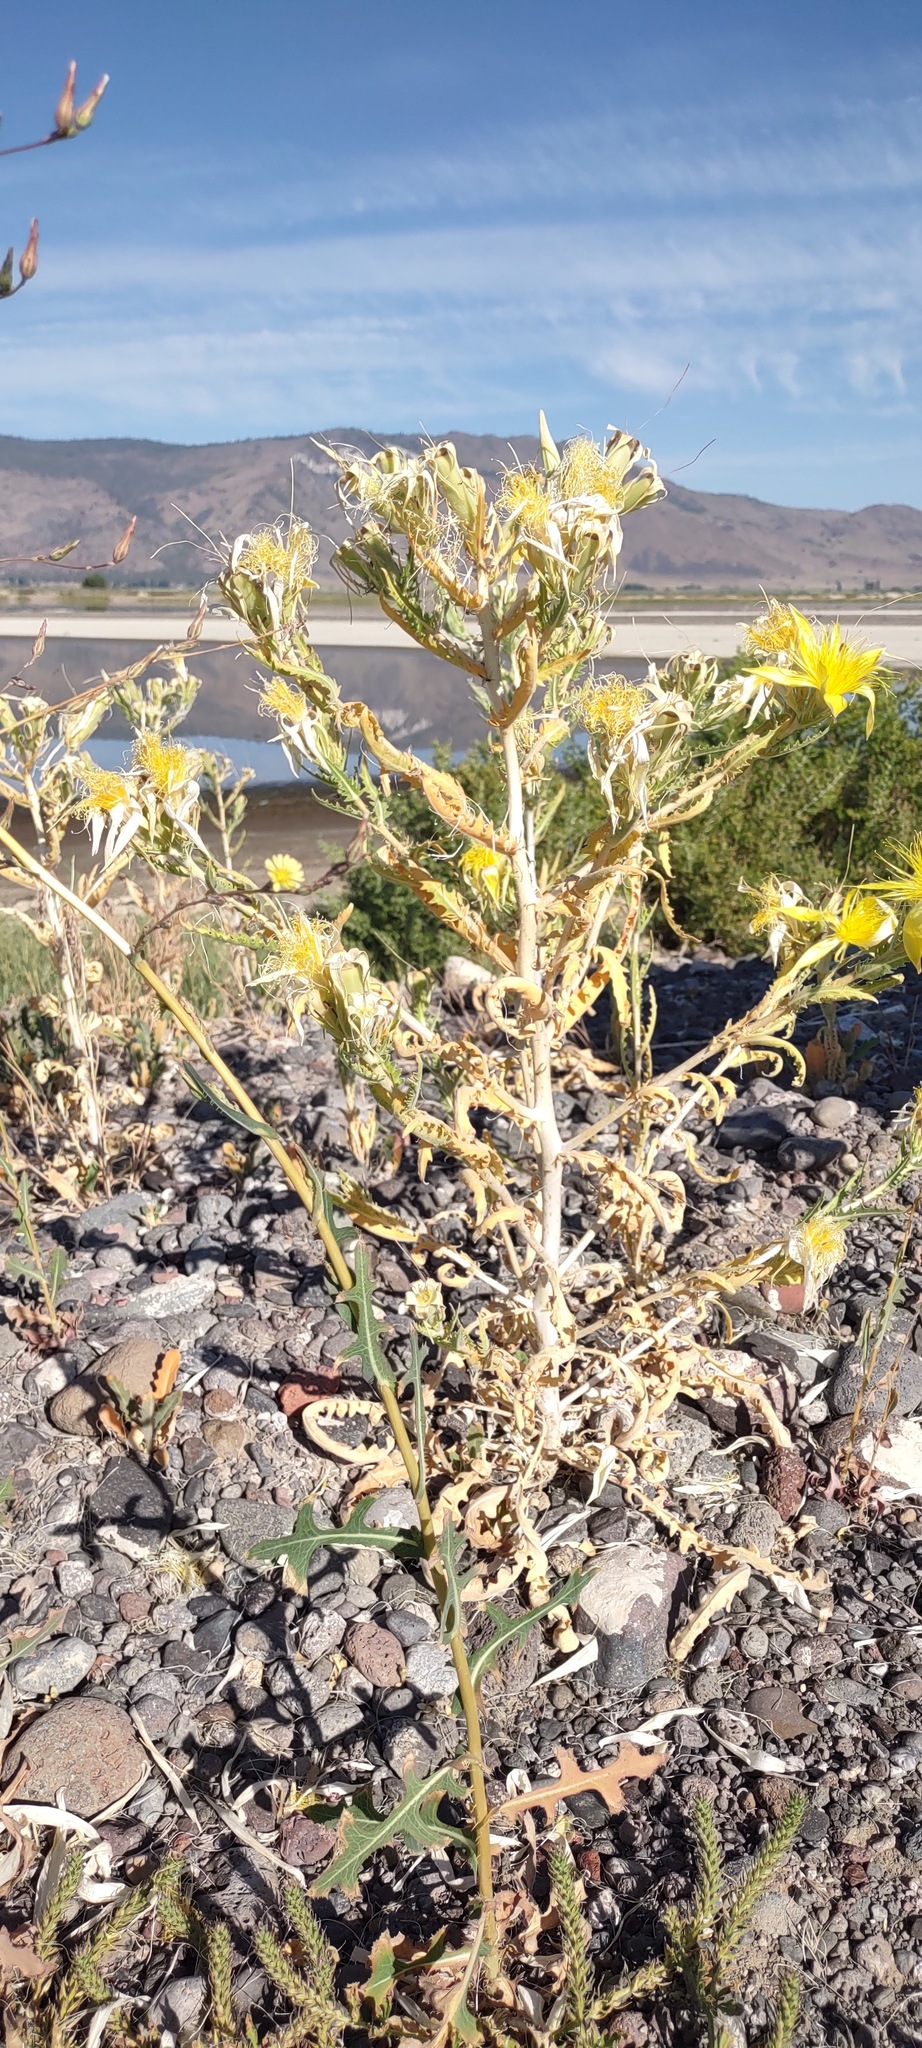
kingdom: Plantae
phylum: Tracheophyta
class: Magnoliopsida
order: Cornales
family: Loasaceae
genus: Mentzelia
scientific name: Mentzelia laevicaulis
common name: Smooth-stem blazingstar
